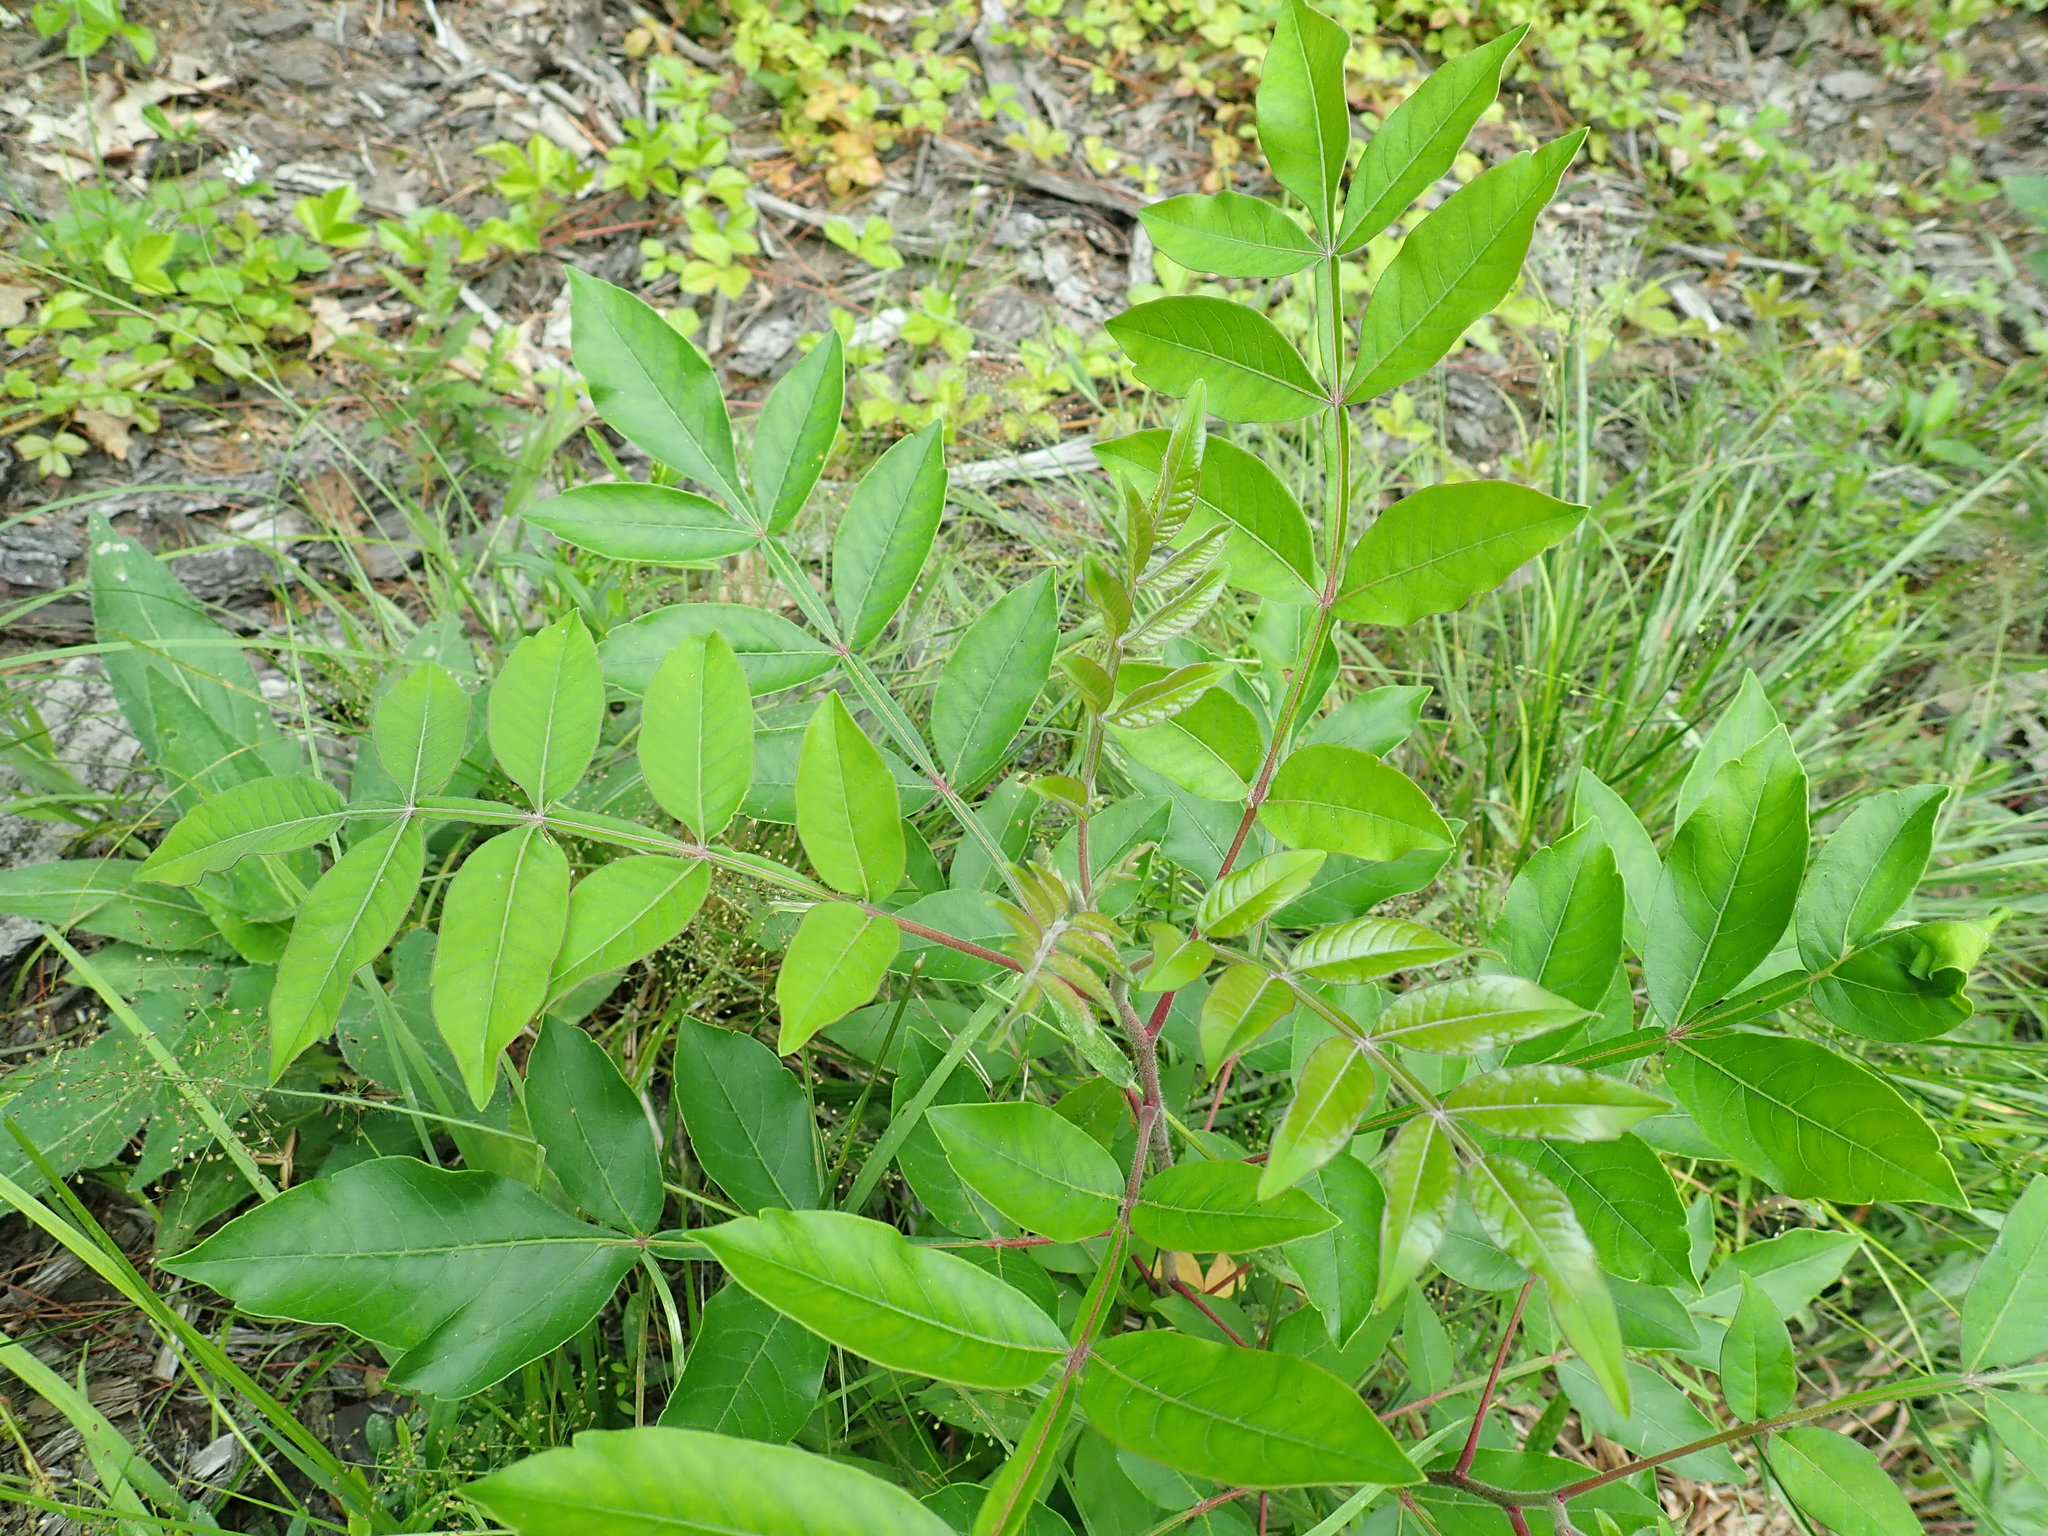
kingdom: Plantae
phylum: Tracheophyta
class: Magnoliopsida
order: Sapindales
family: Anacardiaceae
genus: Rhus
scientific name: Rhus copallina
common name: Shining sumac
